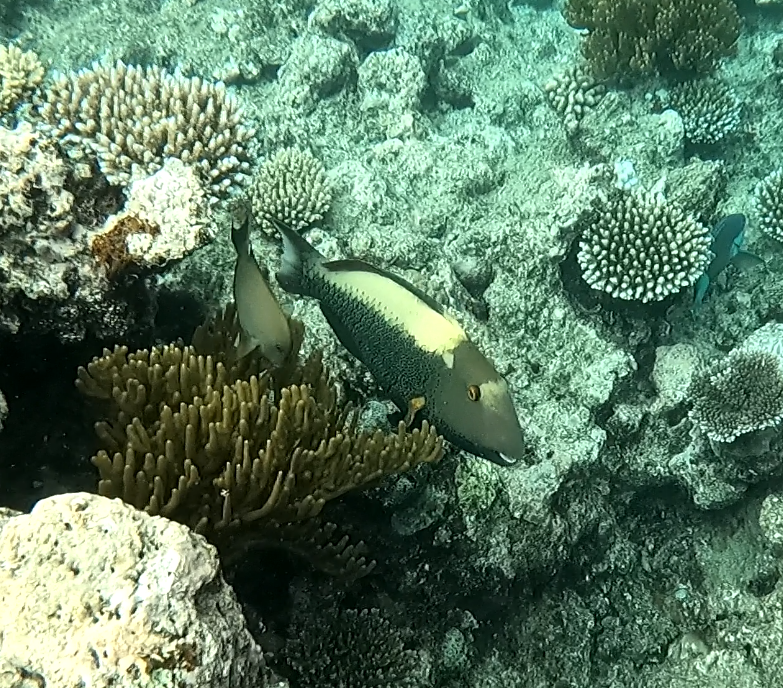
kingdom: Animalia
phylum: Chordata
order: Perciformes
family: Scaridae
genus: Cetoscarus
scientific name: Cetoscarus ocellatus
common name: Bicolor parrotfish
